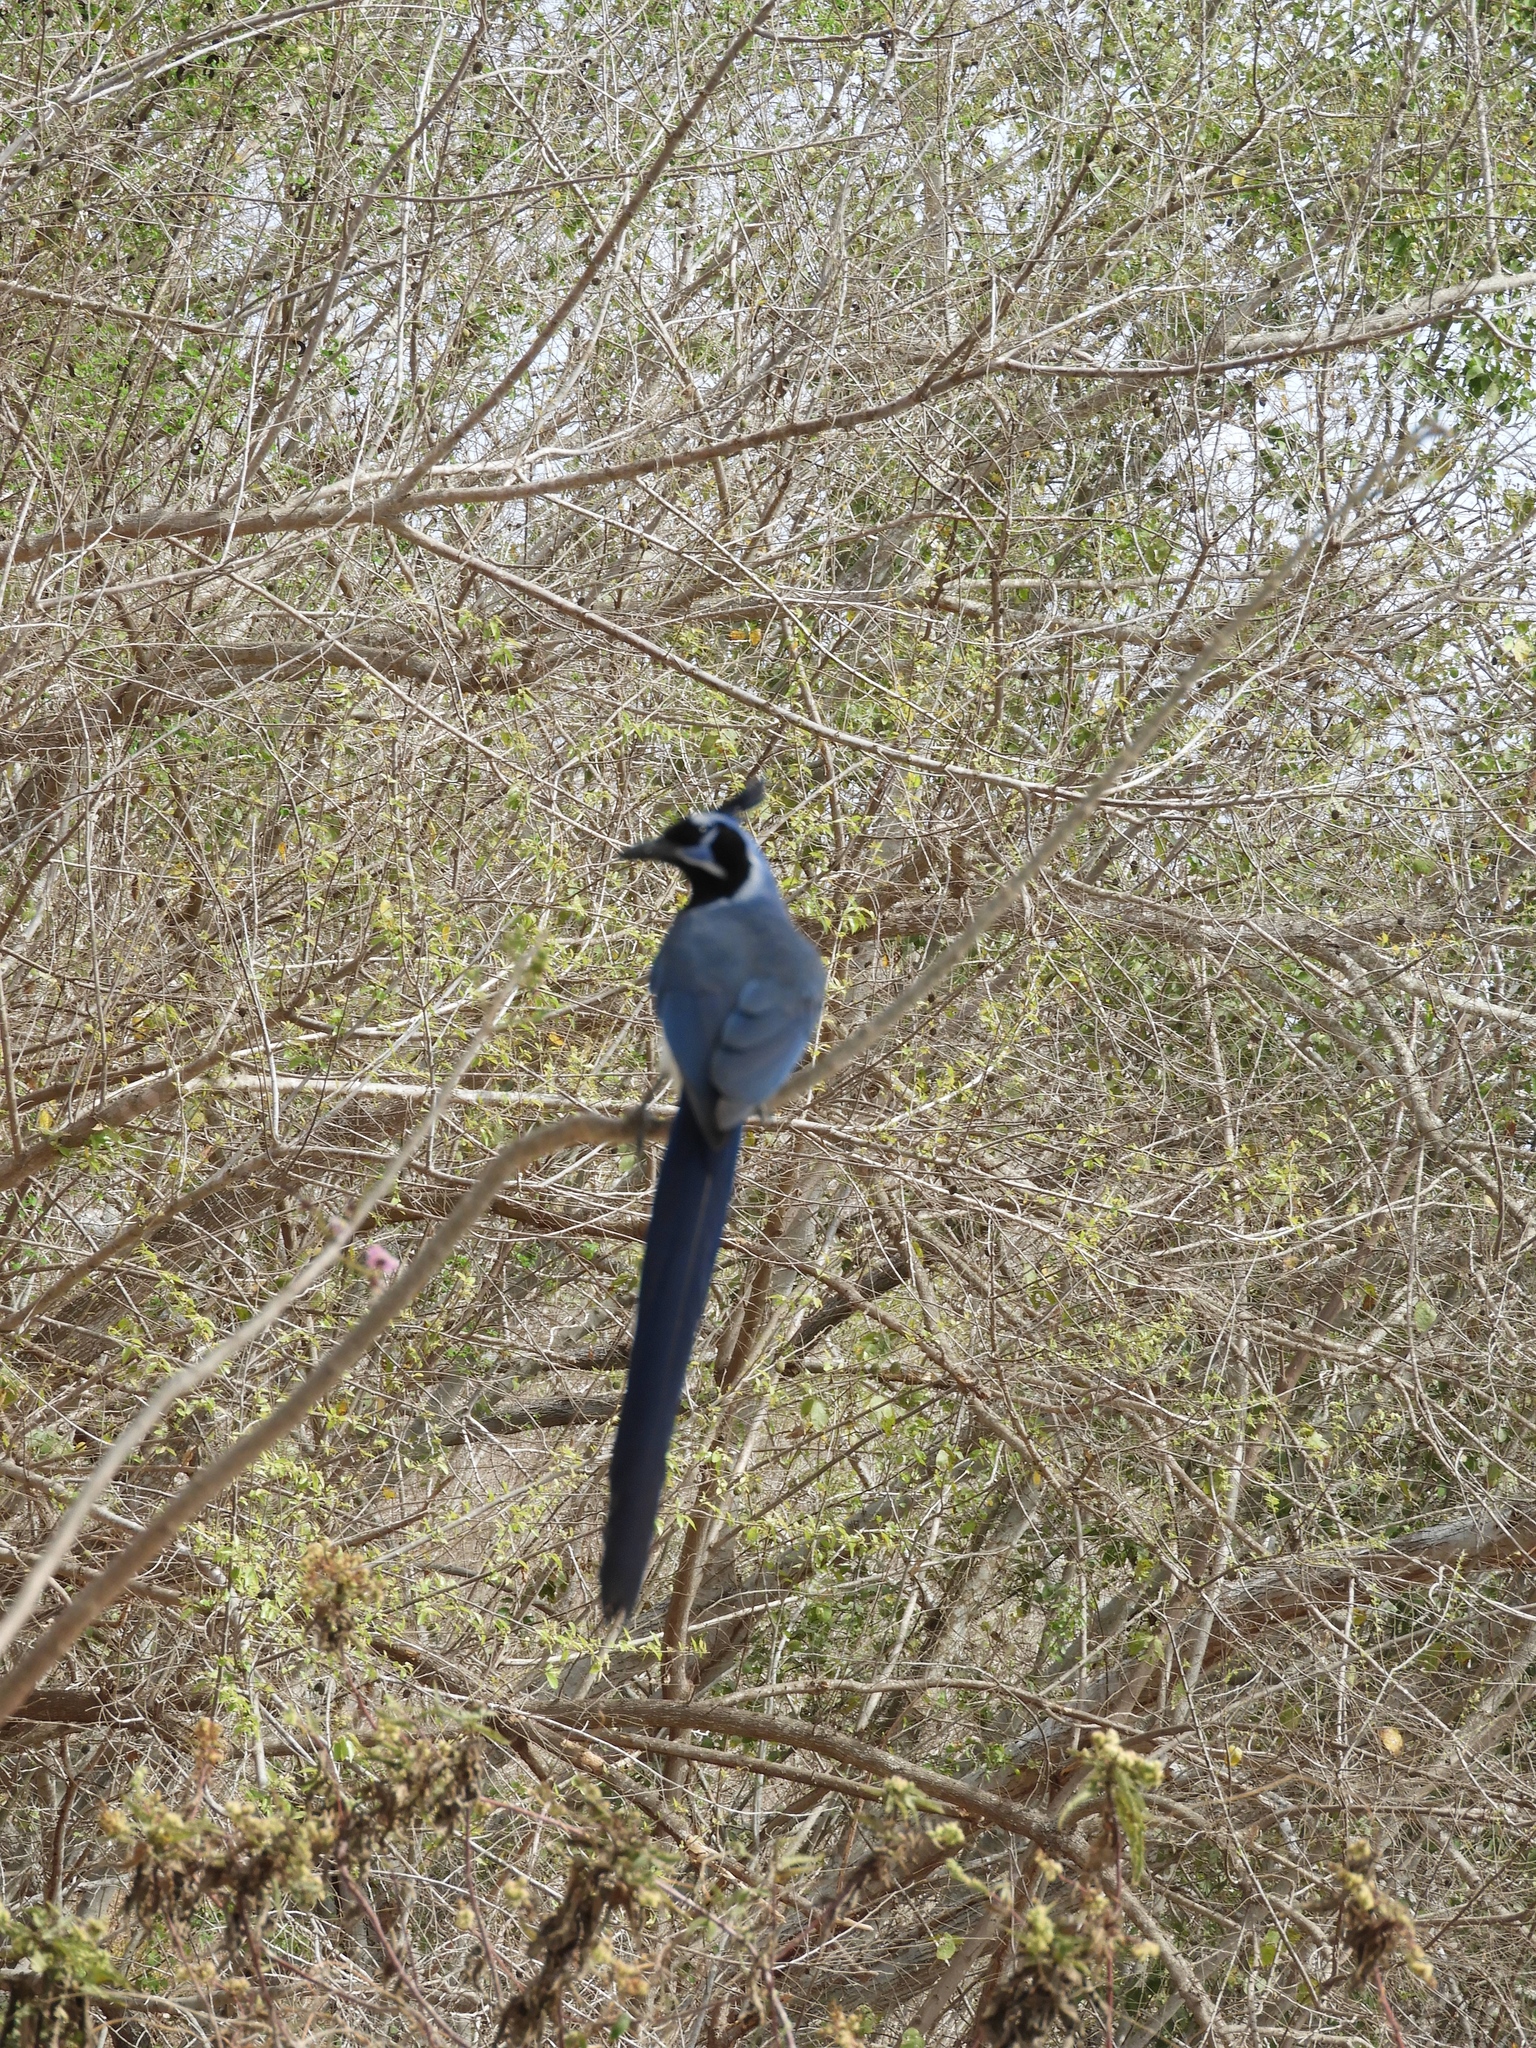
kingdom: Animalia
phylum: Chordata
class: Aves
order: Passeriformes
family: Corvidae
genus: Calocitta
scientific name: Calocitta colliei
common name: Black-throated magpie-jay
